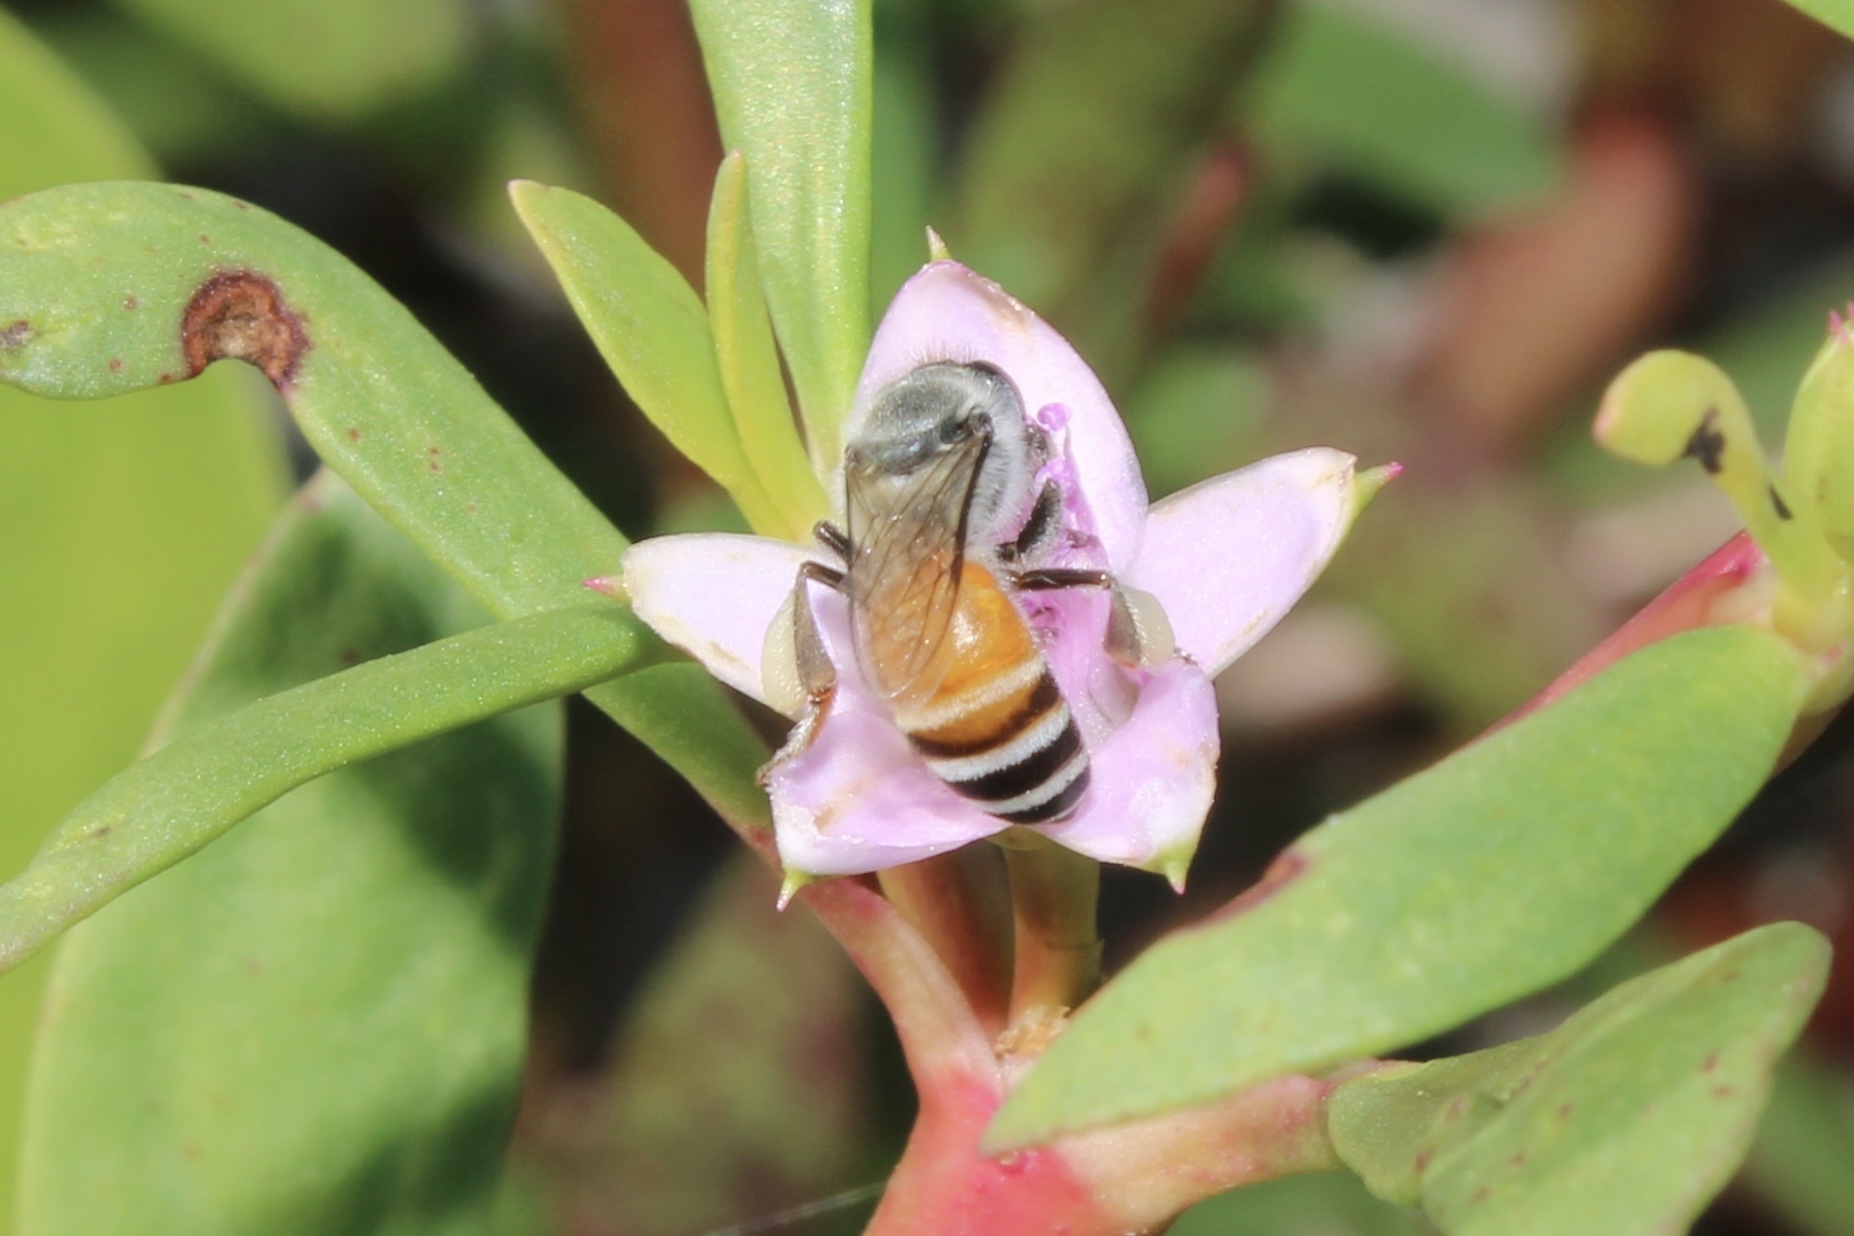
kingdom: Animalia
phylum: Arthropoda
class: Insecta
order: Hymenoptera
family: Apidae
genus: Apis
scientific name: Apis florea
